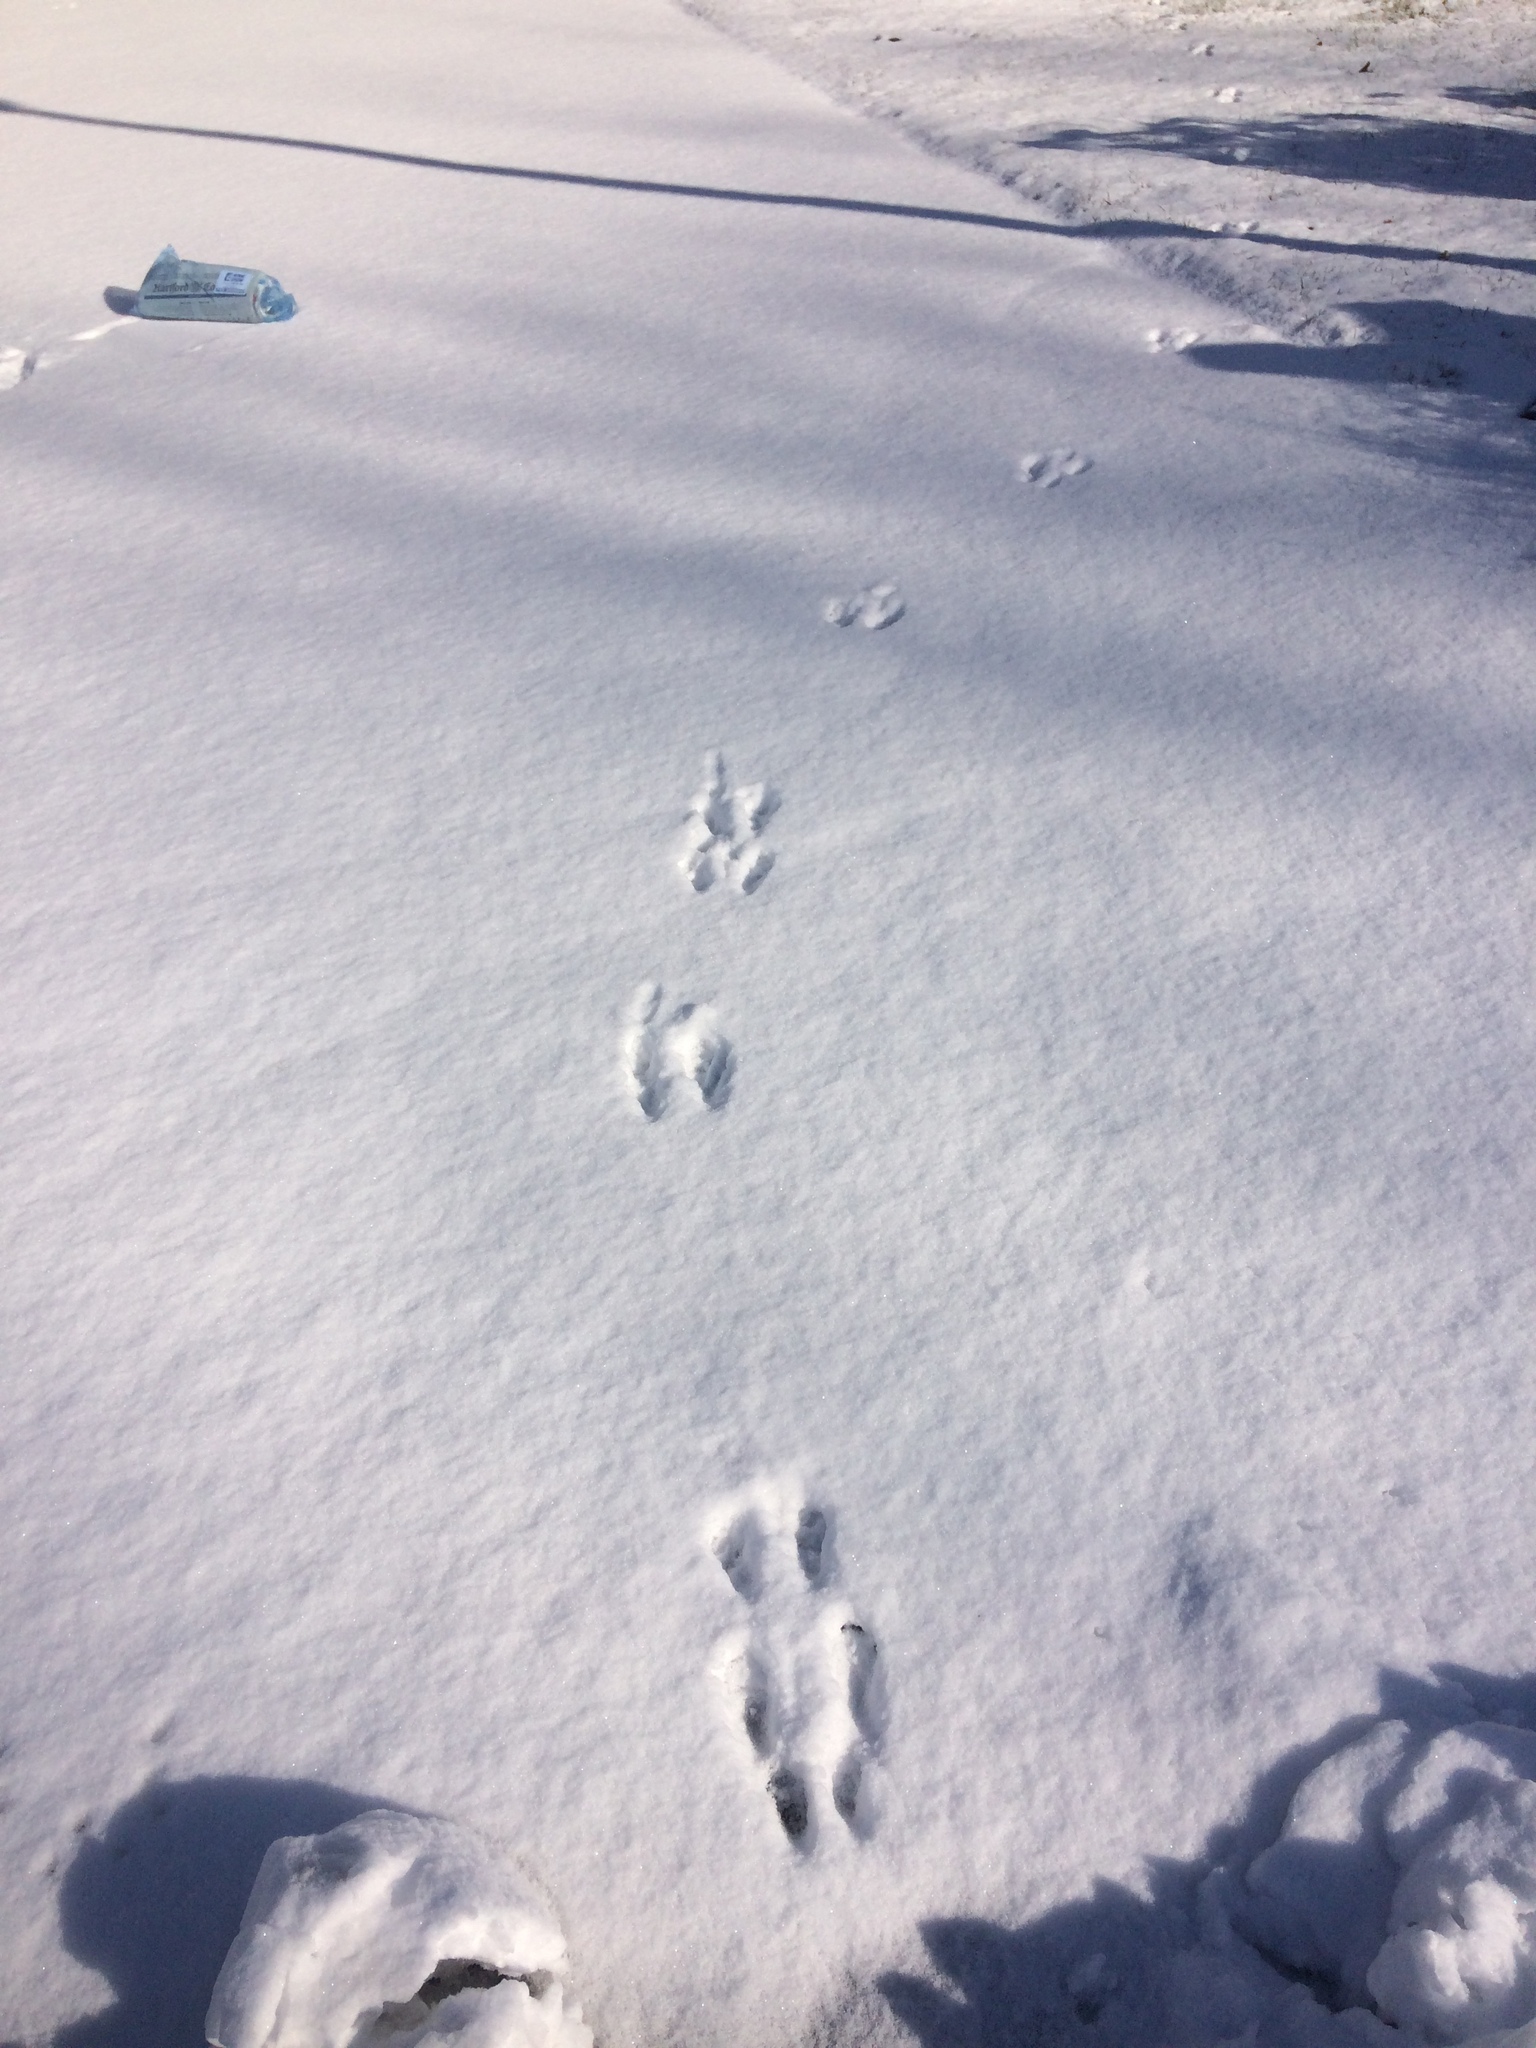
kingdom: Animalia
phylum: Chordata
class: Mammalia
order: Rodentia
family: Sciuridae
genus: Sciurus
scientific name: Sciurus carolinensis
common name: Eastern gray squirrel
